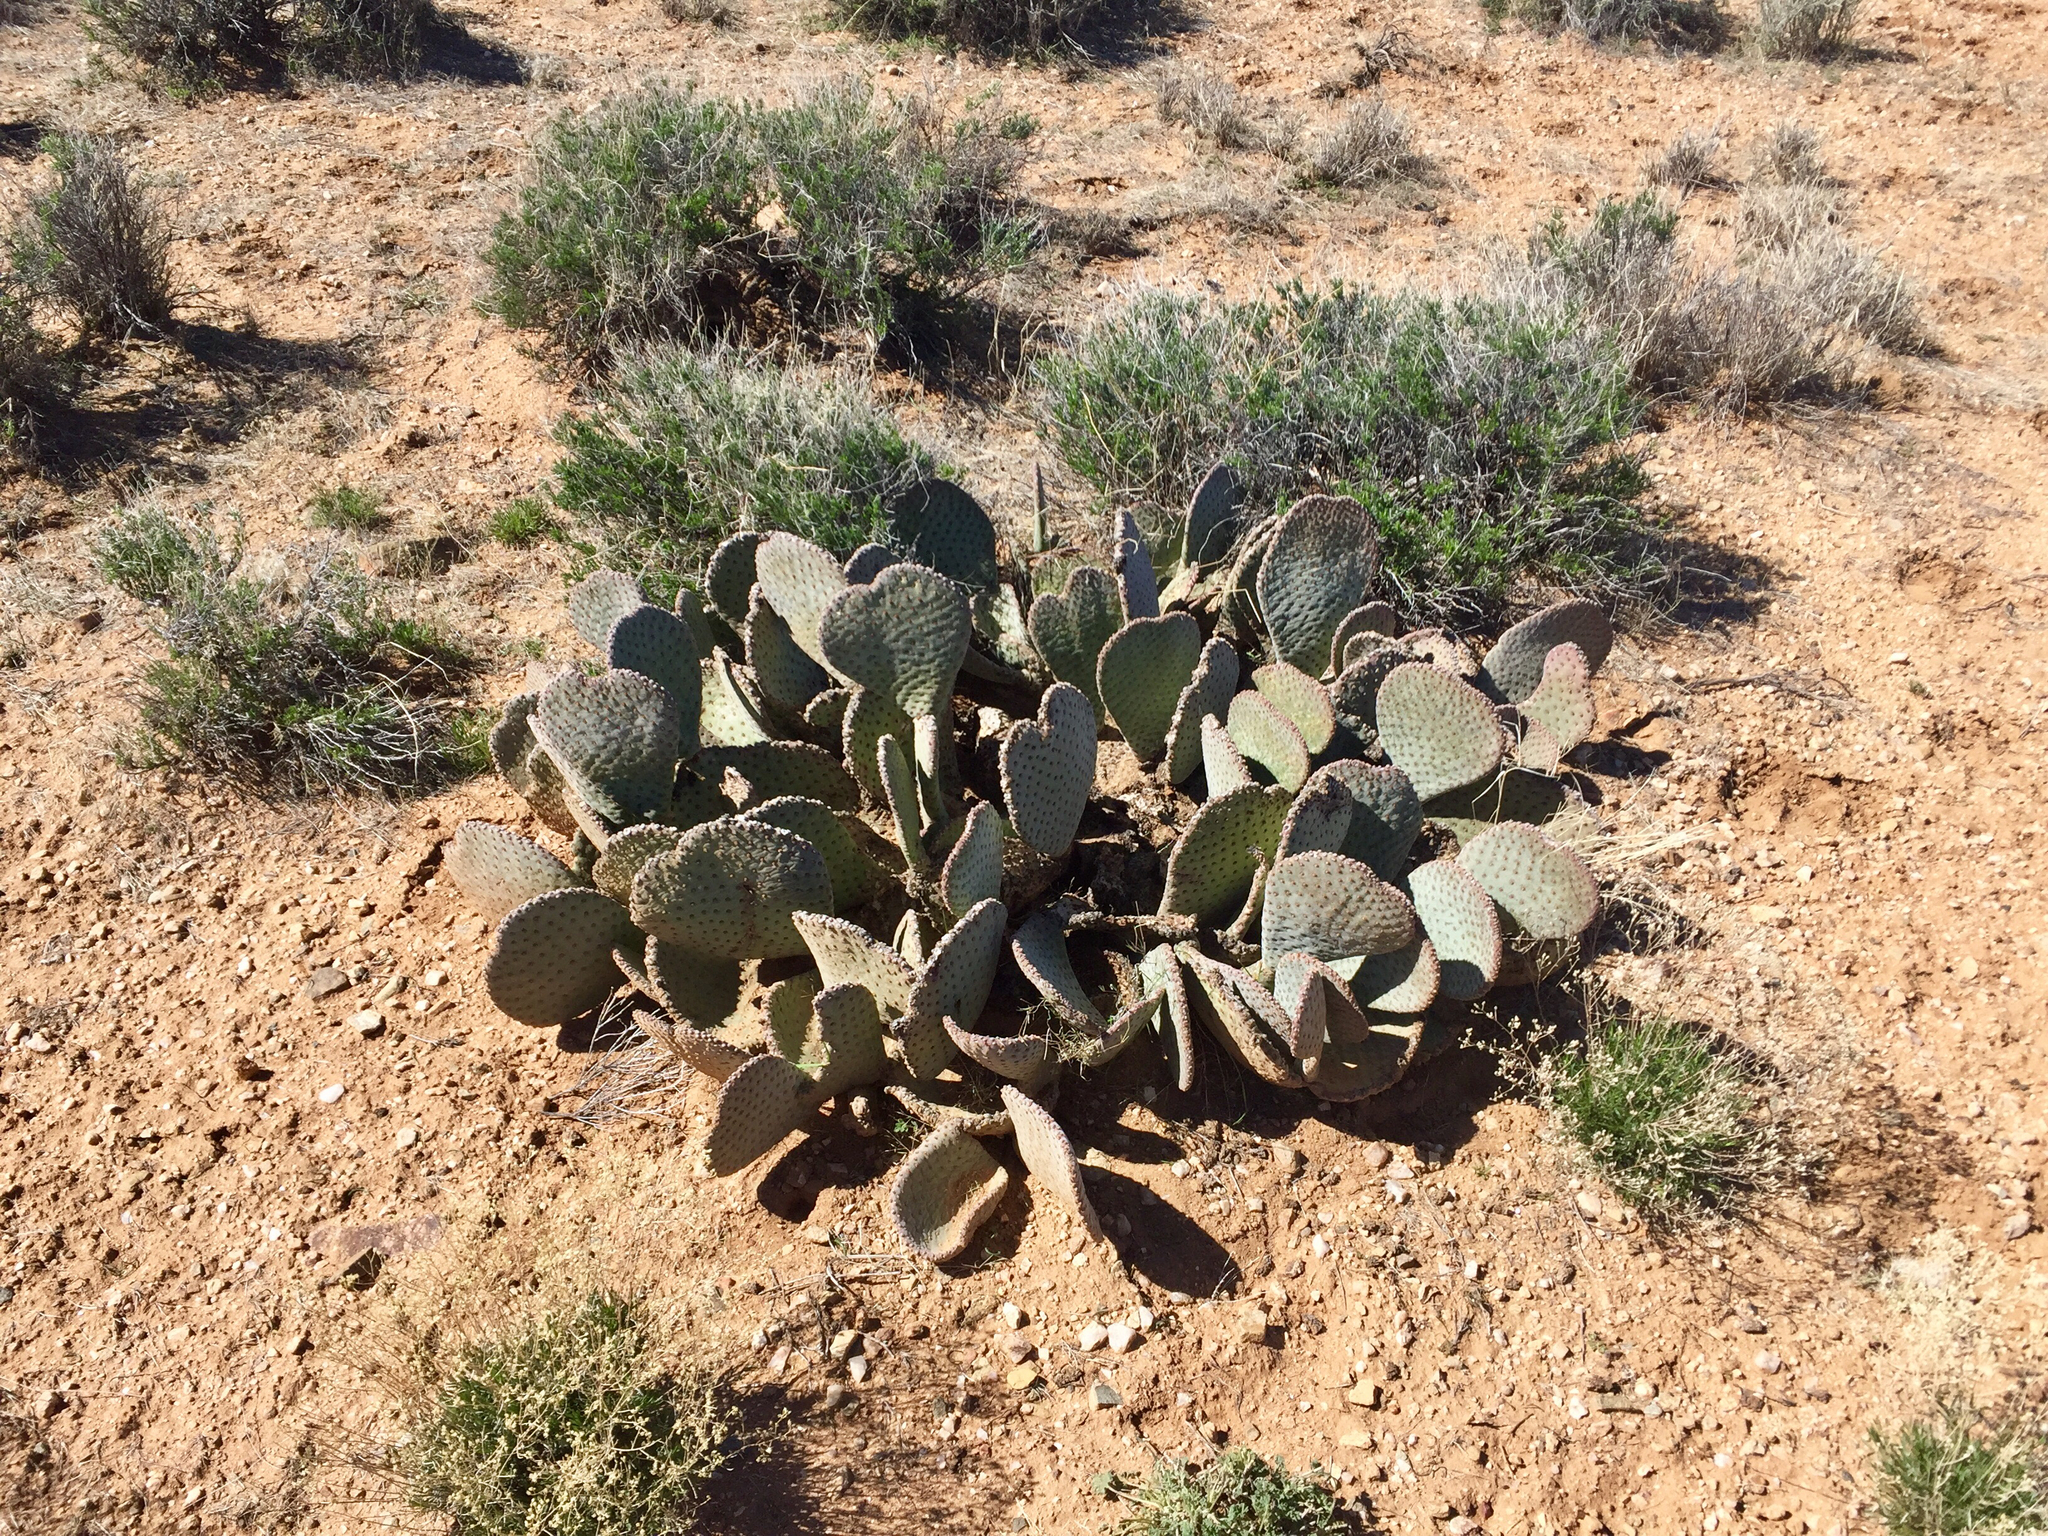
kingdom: Plantae
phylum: Tracheophyta
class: Magnoliopsida
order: Caryophyllales
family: Cactaceae
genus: Opuntia
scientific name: Opuntia basilaris
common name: Beavertail prickly-pear
